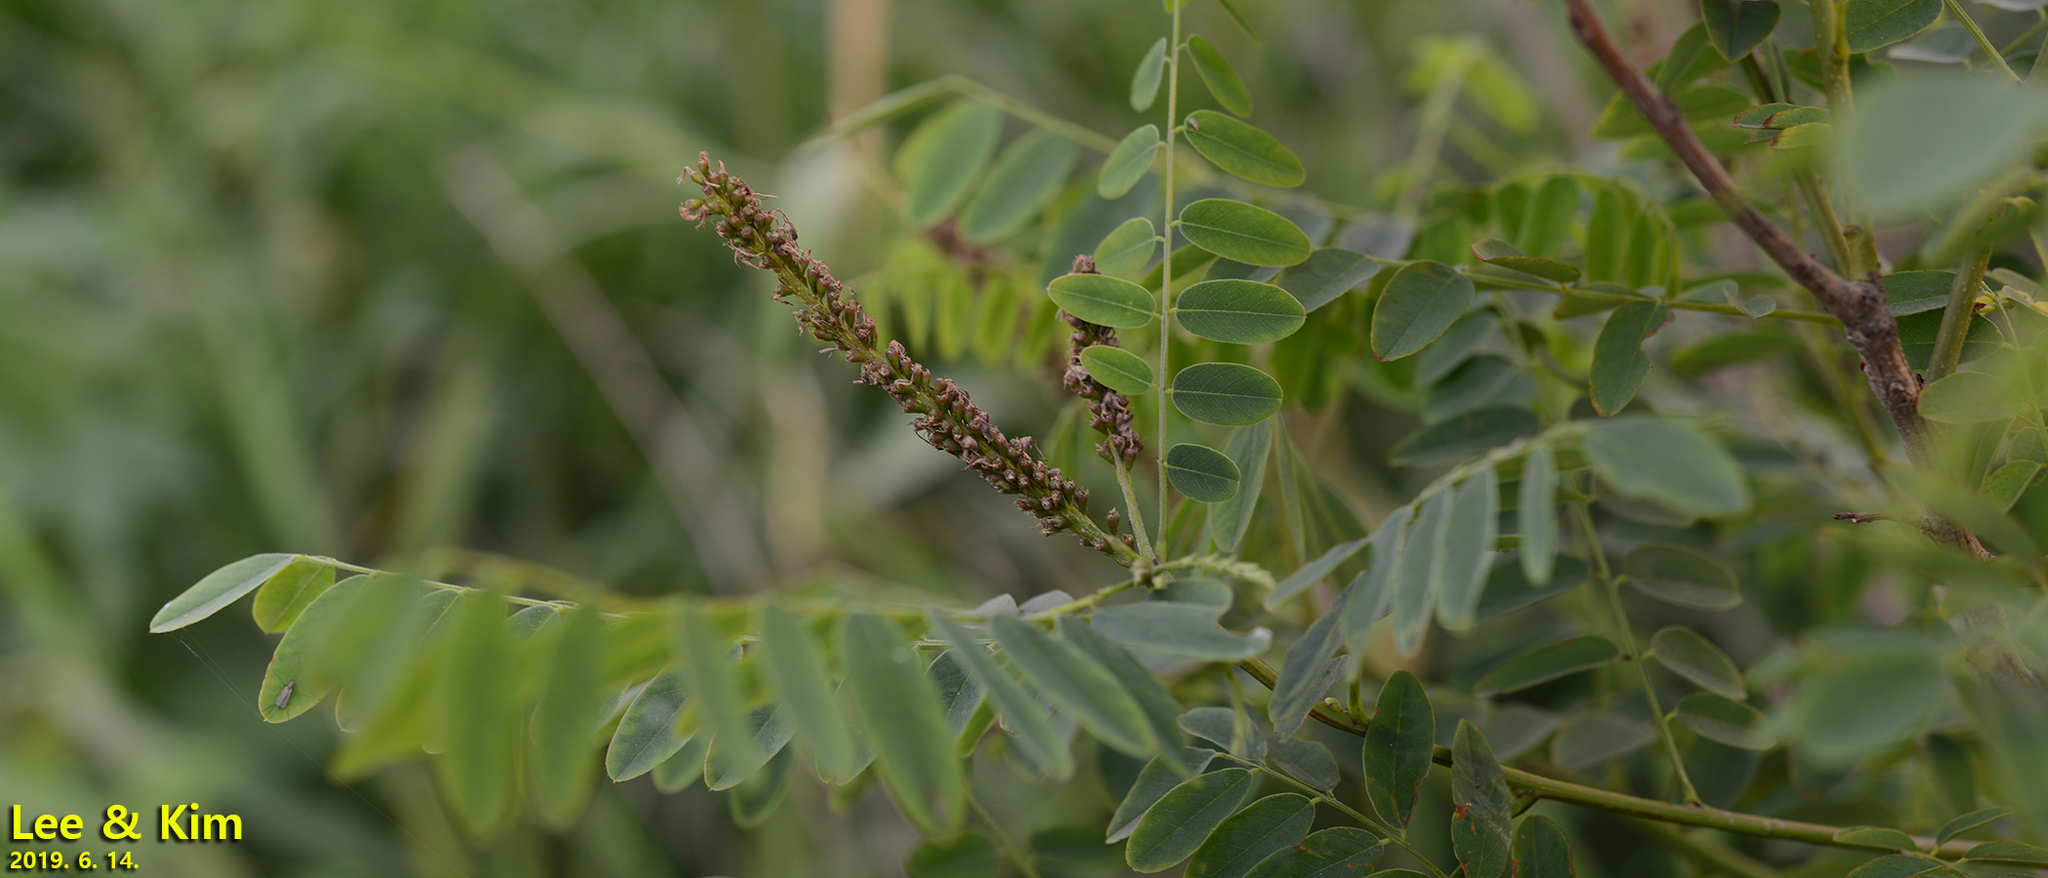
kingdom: Plantae
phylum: Tracheophyta
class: Magnoliopsida
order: Fabales
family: Fabaceae
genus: Amorpha
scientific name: Amorpha fruticosa
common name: False indigo
